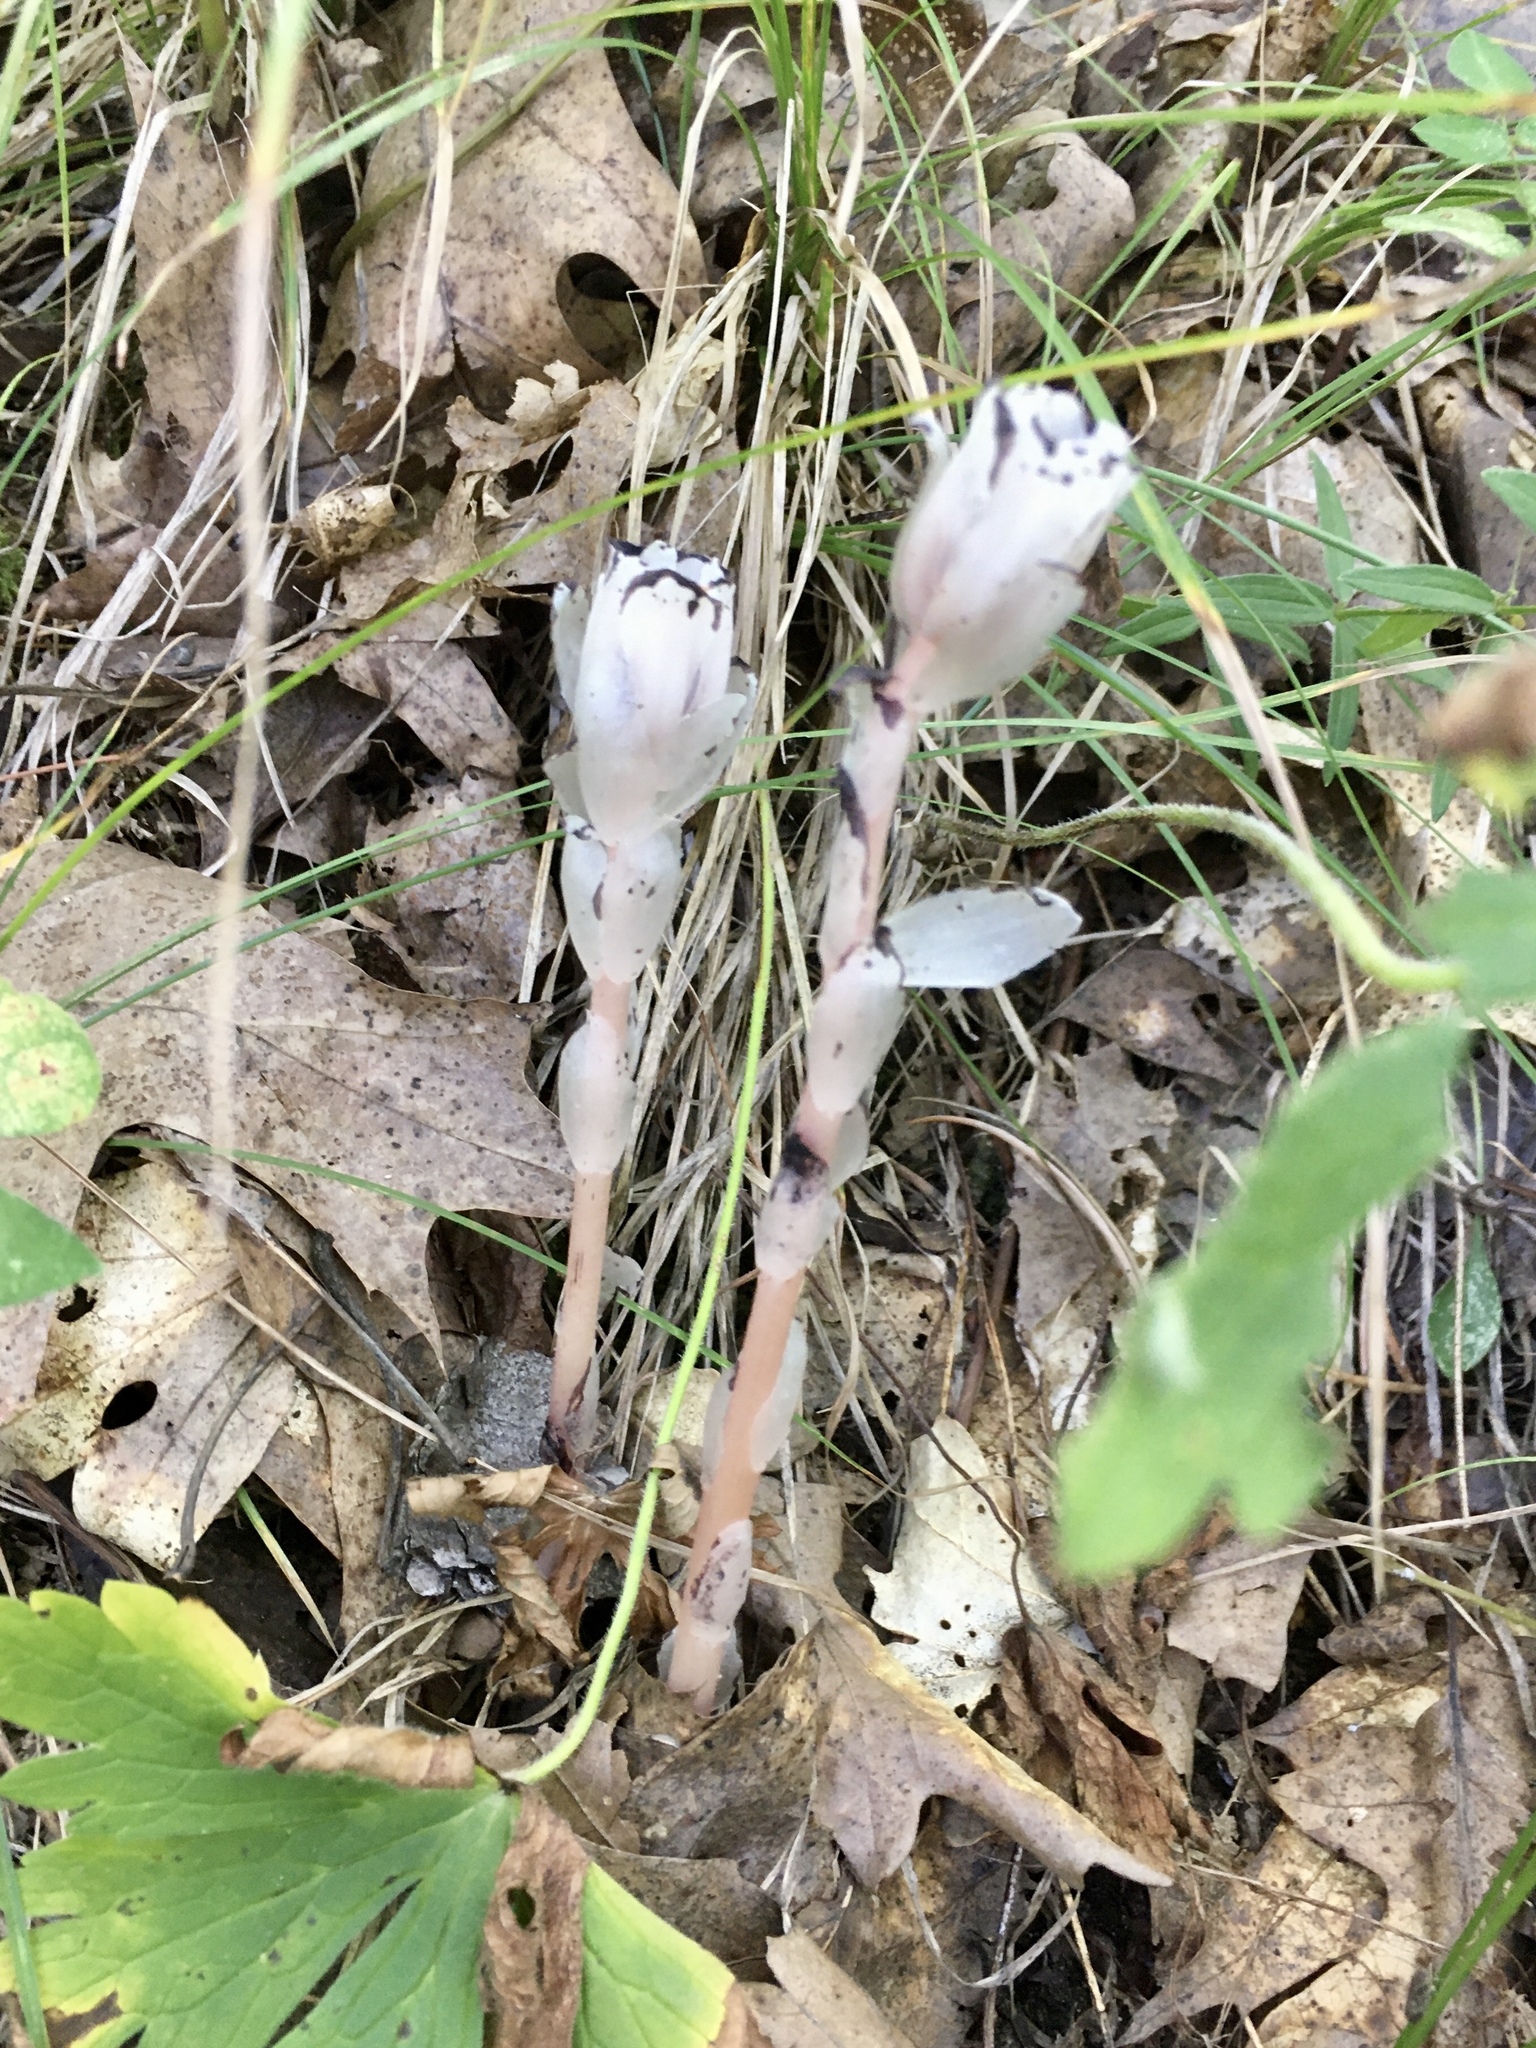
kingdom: Plantae
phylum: Tracheophyta
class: Magnoliopsida
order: Ericales
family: Ericaceae
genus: Monotropa
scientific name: Monotropa uniflora
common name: Convulsion root
